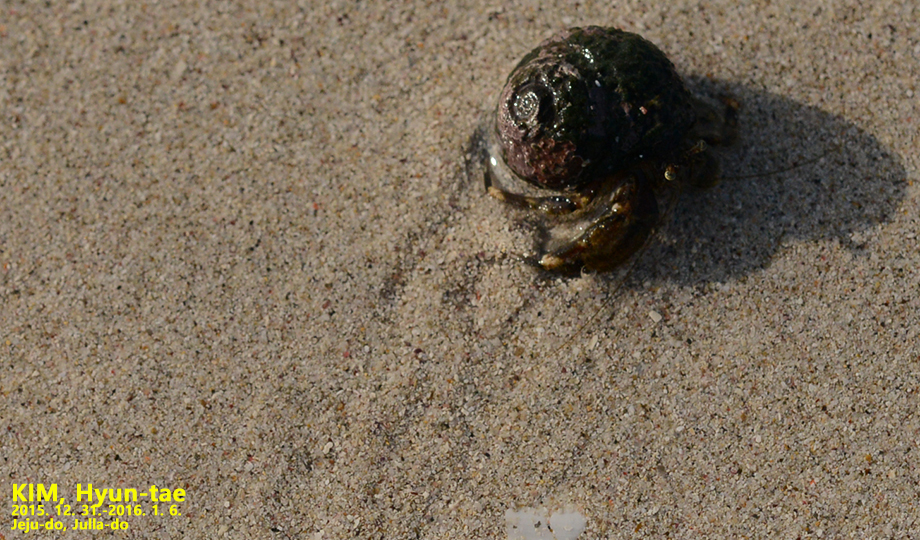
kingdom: Animalia
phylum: Arthropoda
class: Malacostraca
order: Decapoda
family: Paguridae
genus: Pagurus
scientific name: Pagurus minutus
